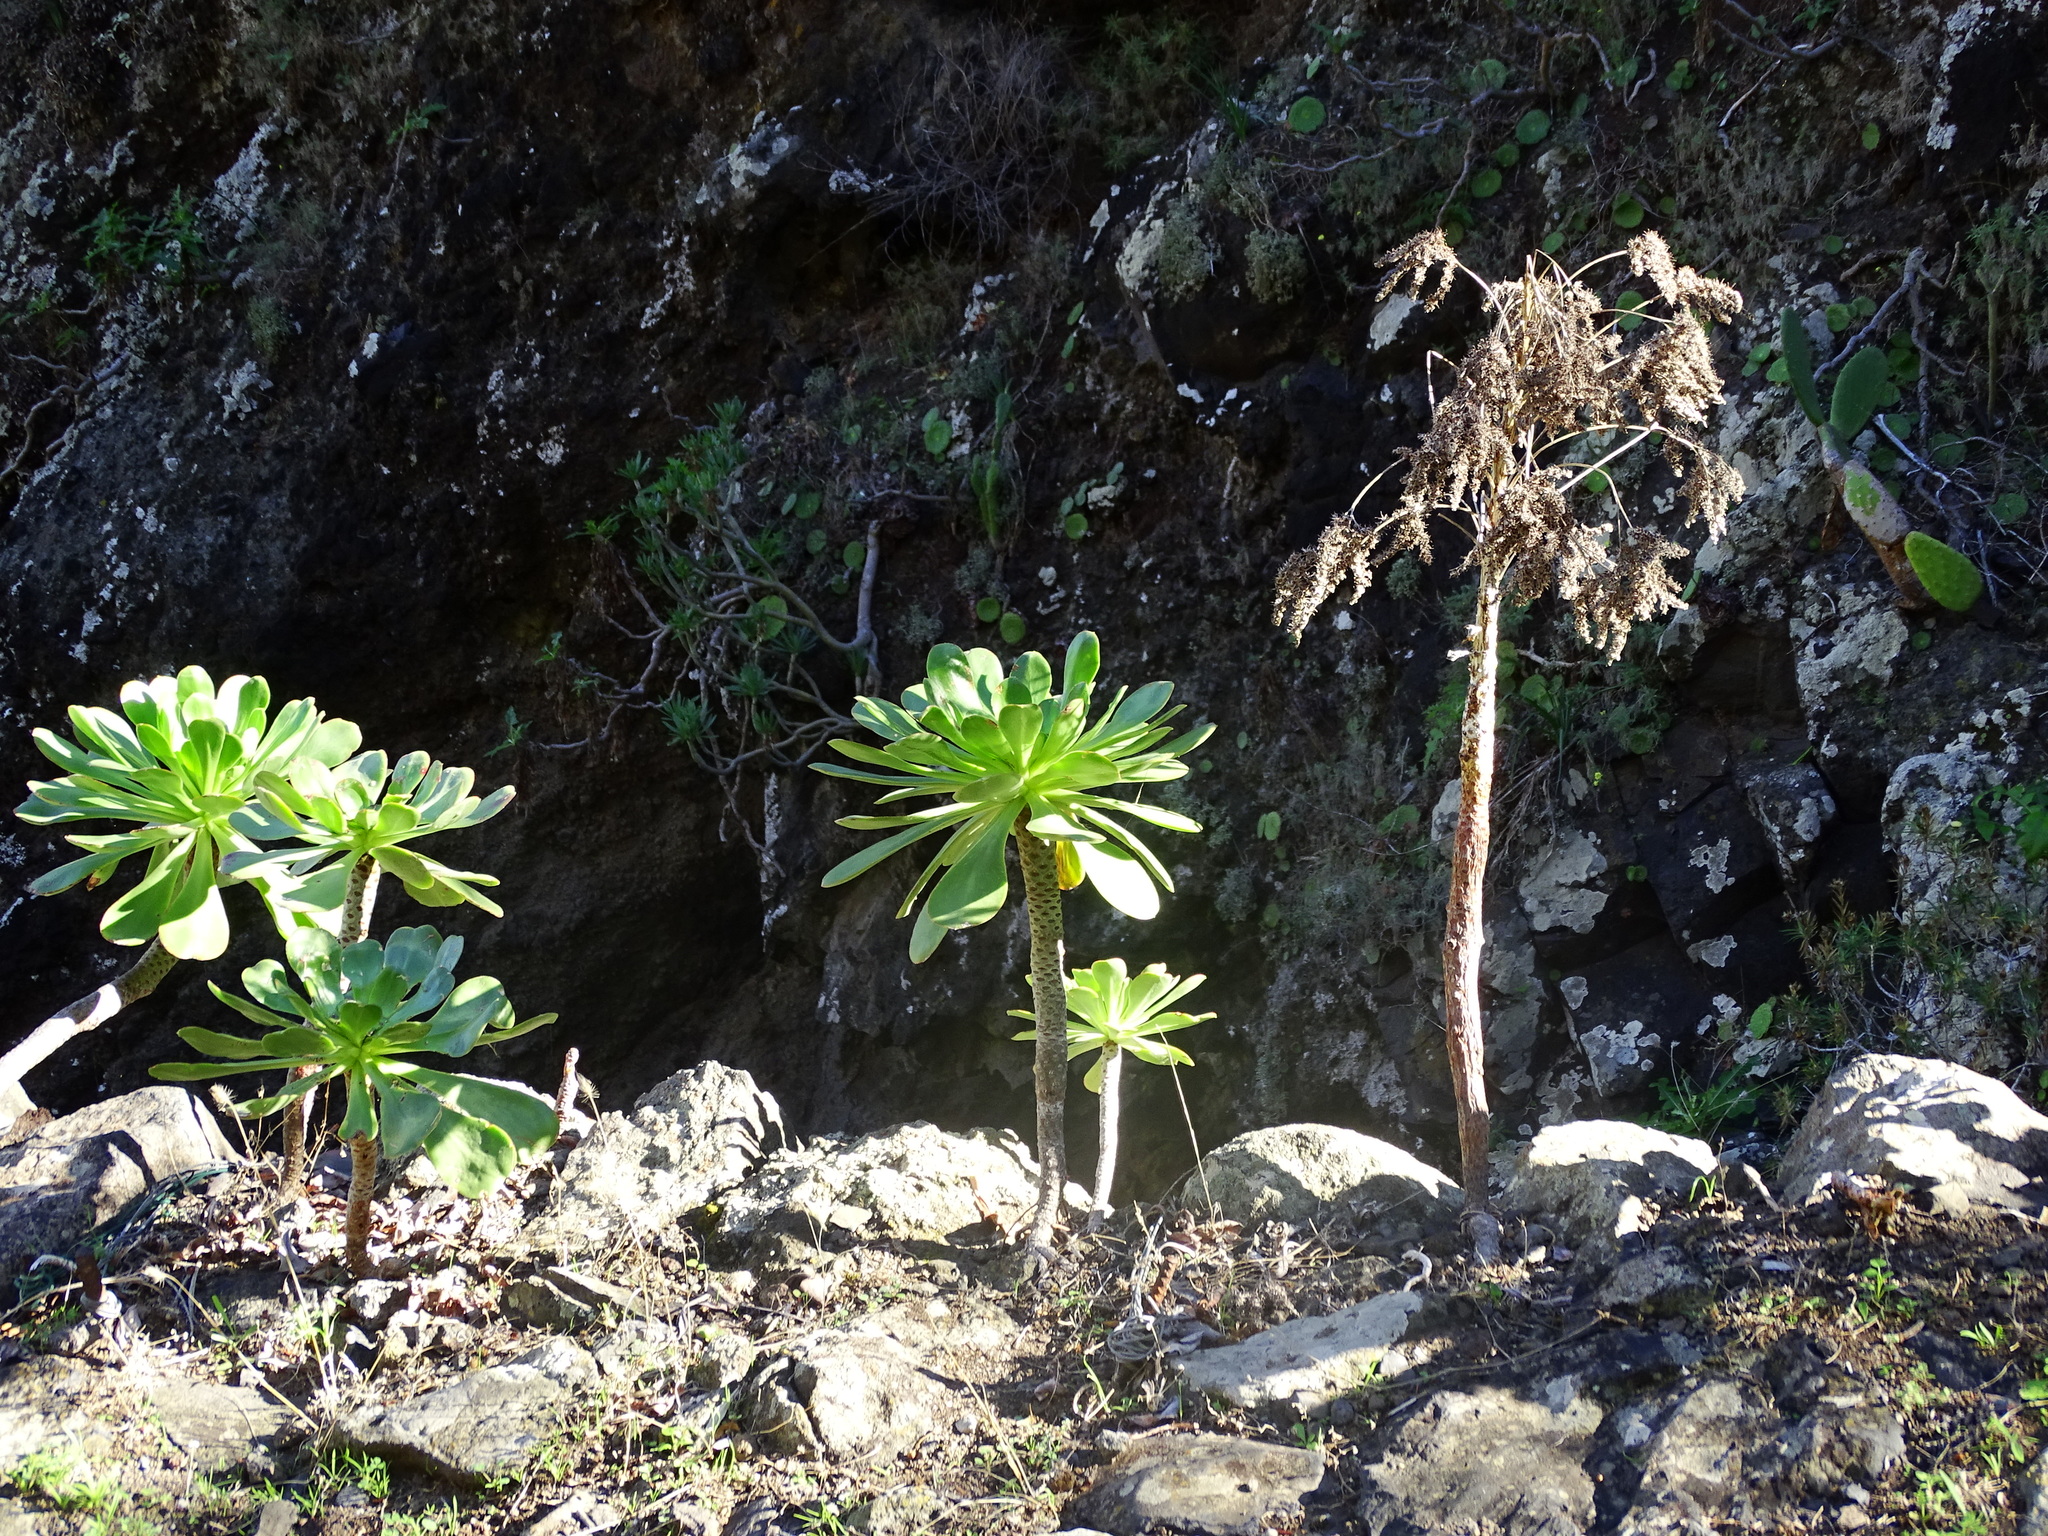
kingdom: Plantae
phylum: Tracheophyta
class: Magnoliopsida
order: Saxifragales
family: Crassulaceae
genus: Aeonium
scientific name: Aeonium urbicum
